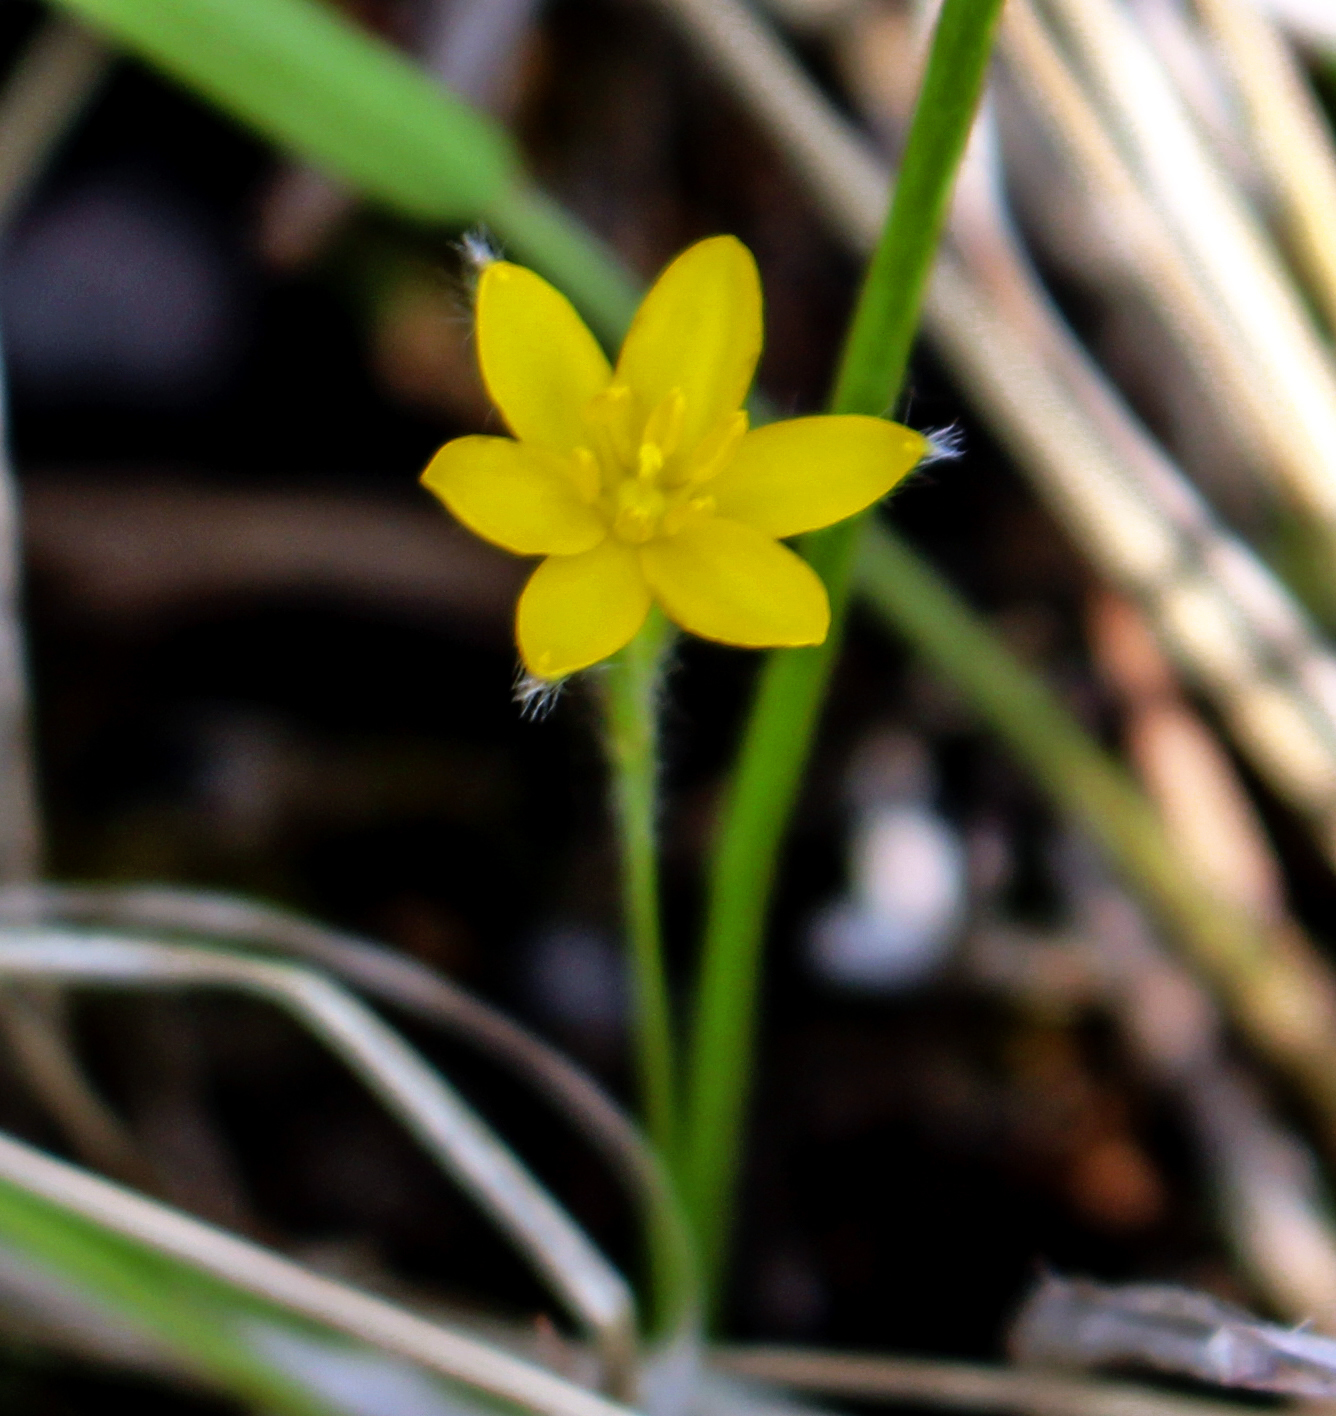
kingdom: Plantae
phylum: Tracheophyta
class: Liliopsida
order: Asparagales
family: Hypoxidaceae
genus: Hypoxis
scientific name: Hypoxis hirsuta
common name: Common goldstar
